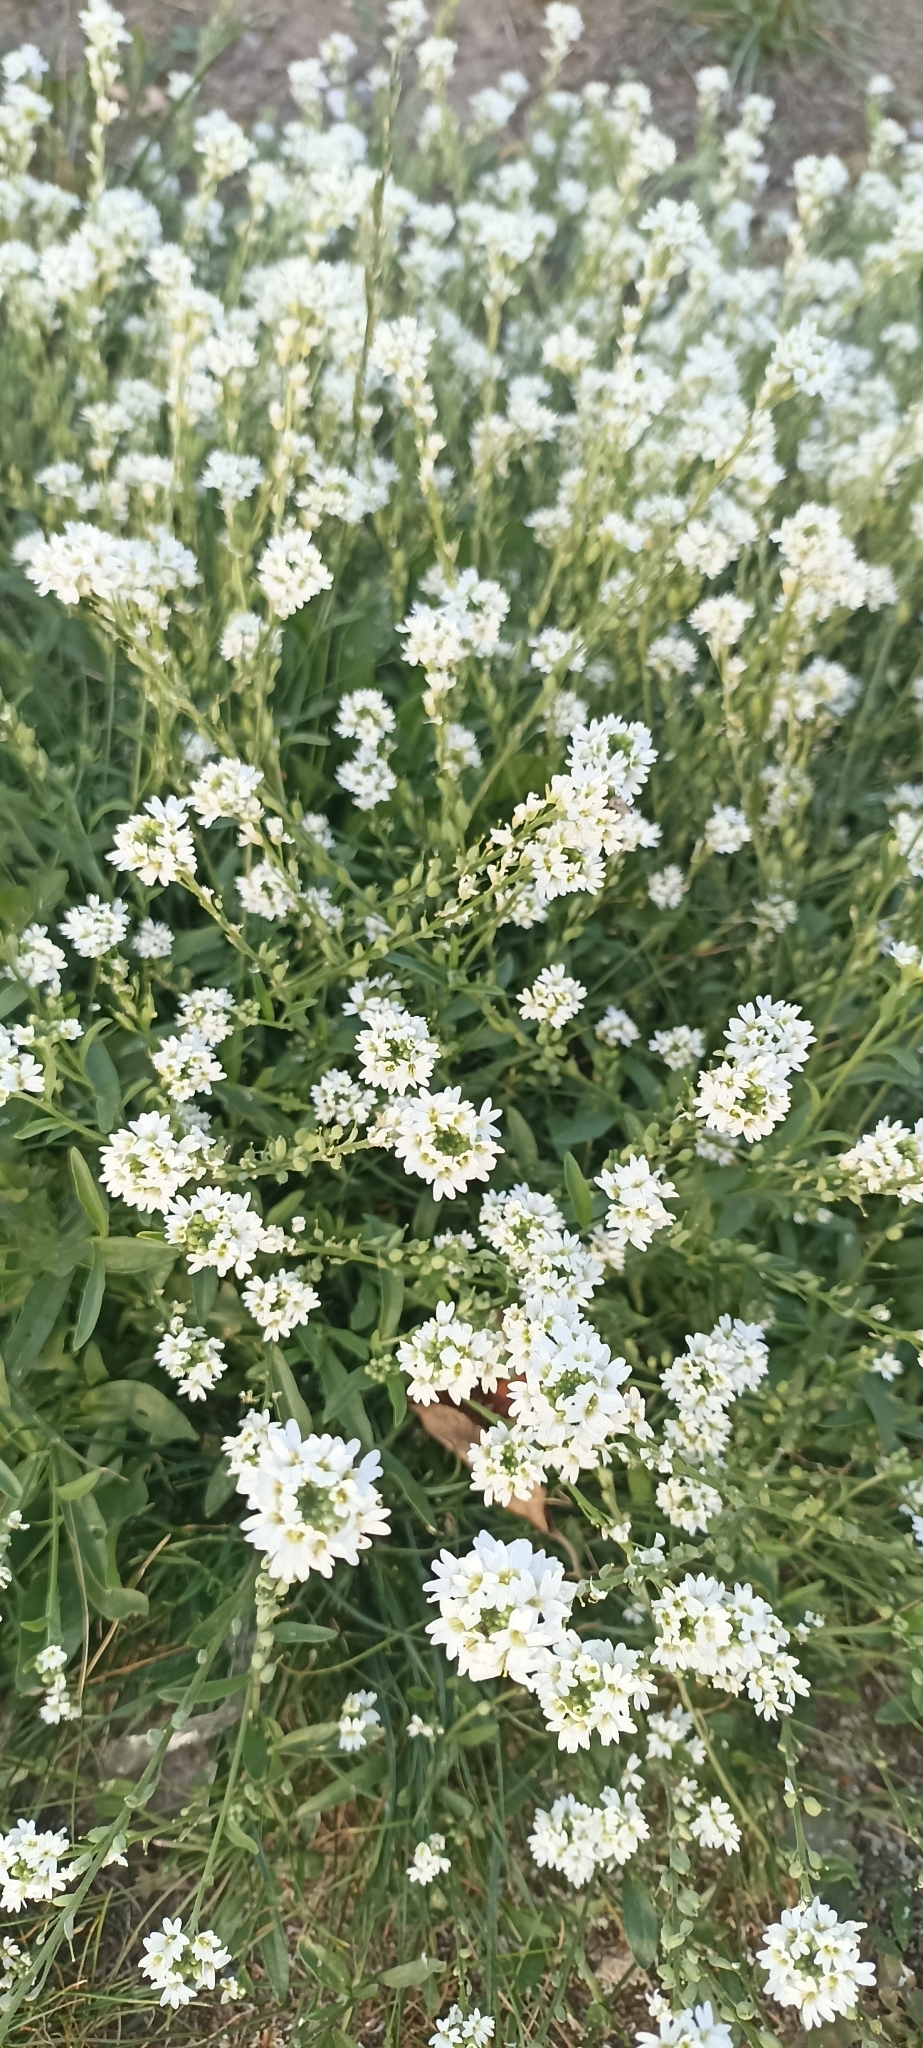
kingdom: Plantae
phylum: Tracheophyta
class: Magnoliopsida
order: Brassicales
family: Brassicaceae
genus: Berteroa
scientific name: Berteroa incana
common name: Hoary alison
